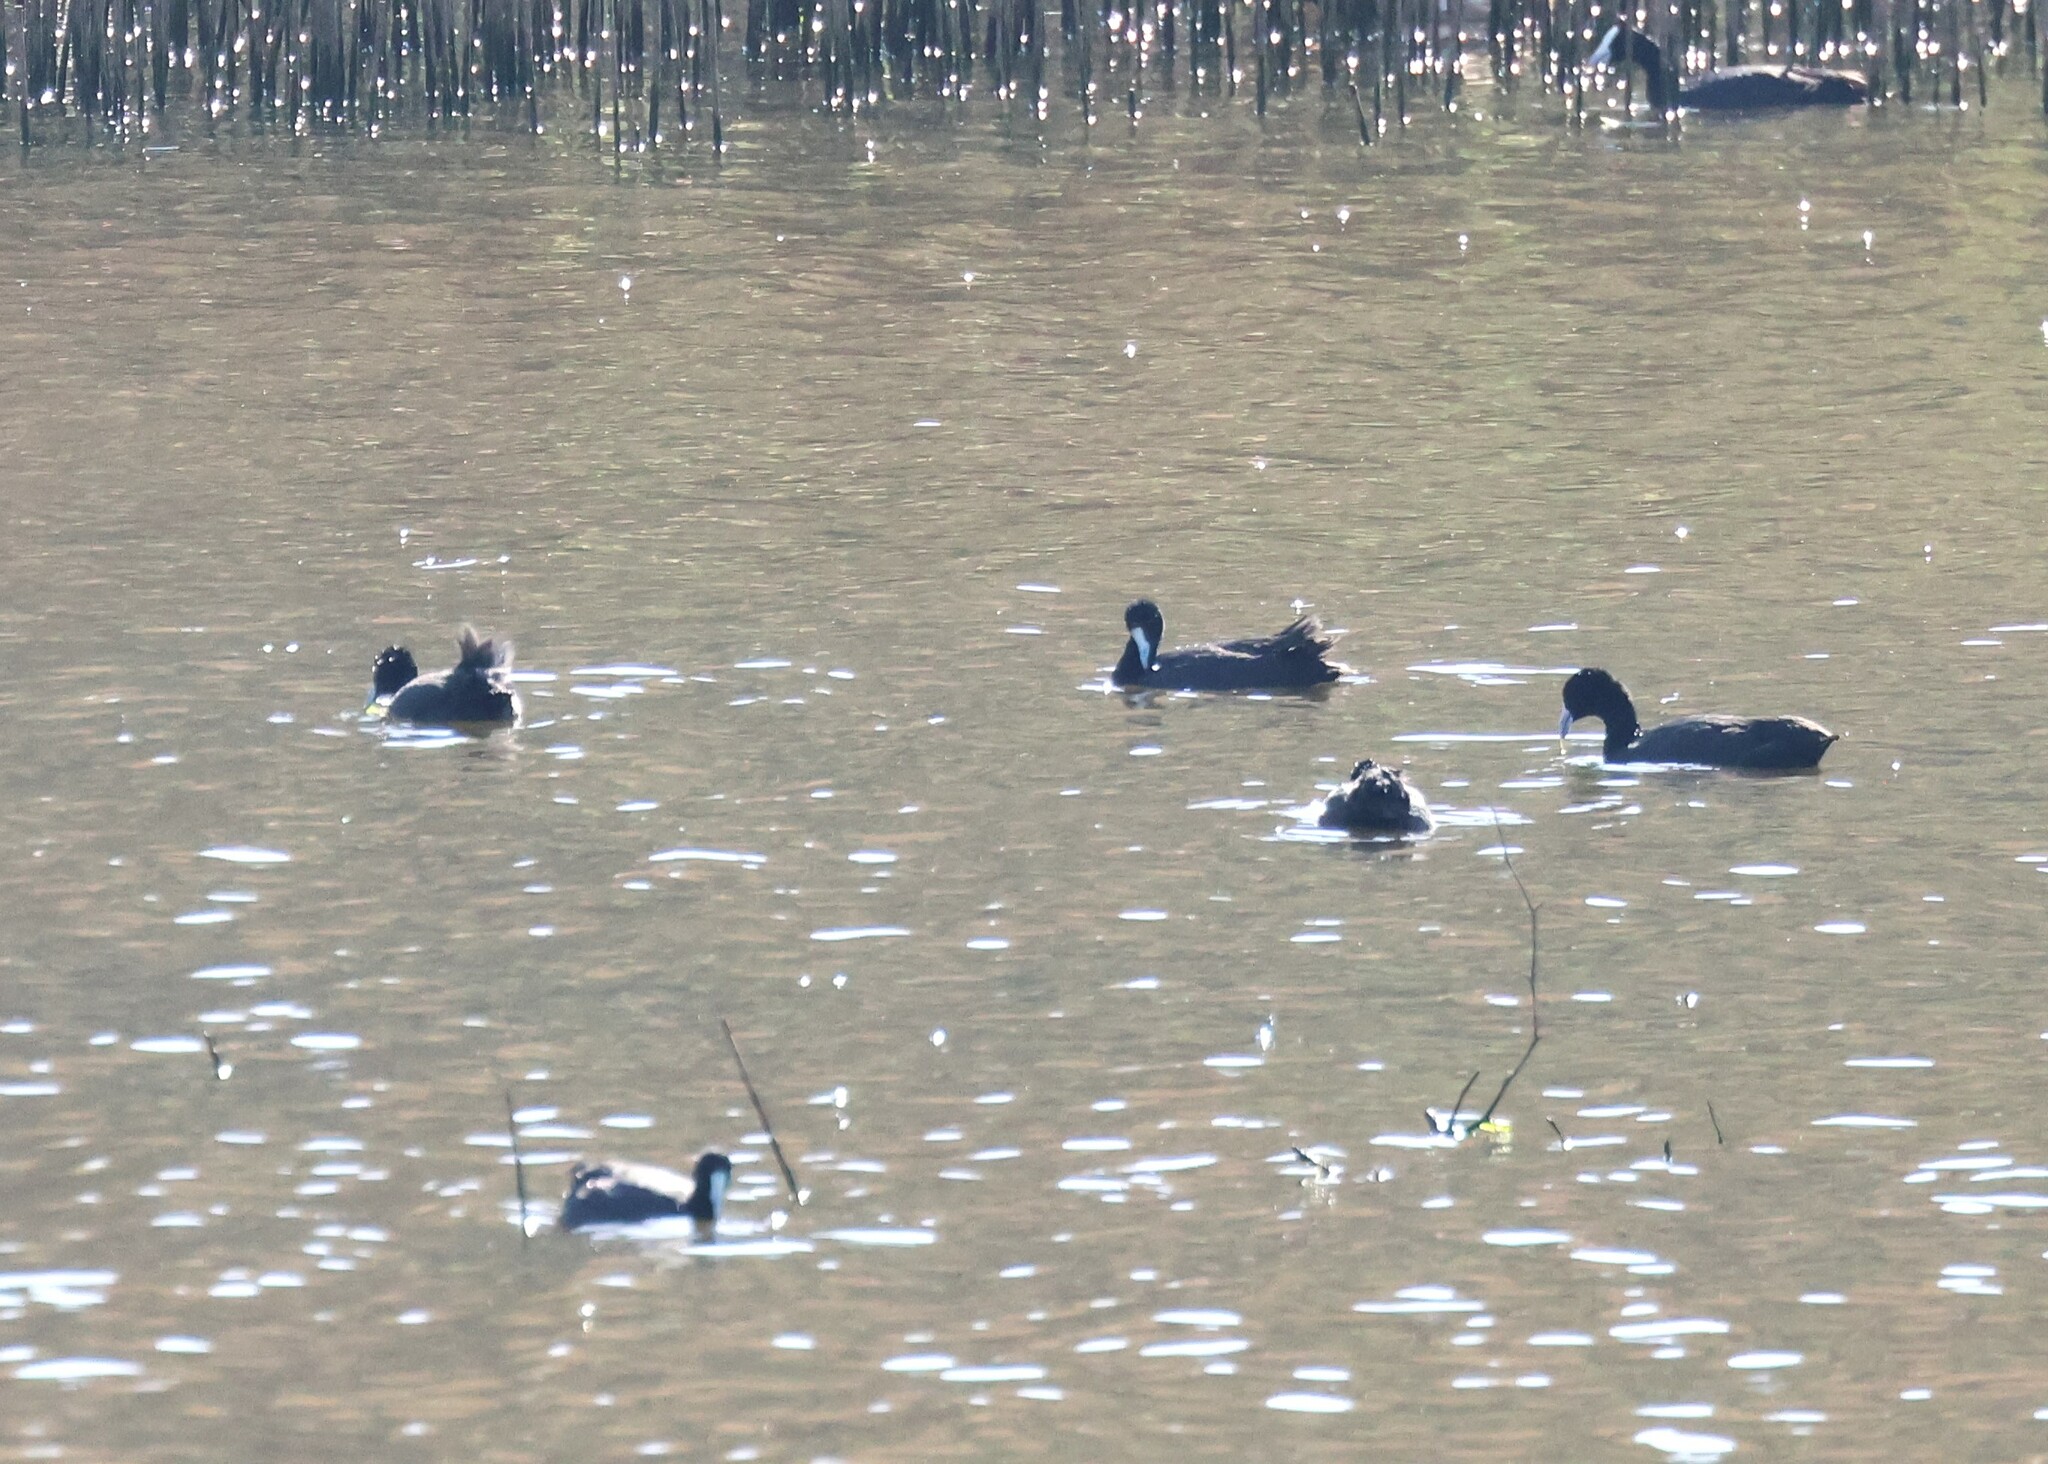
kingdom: Animalia
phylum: Chordata
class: Aves
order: Gruiformes
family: Rallidae
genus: Fulica
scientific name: Fulica cristata
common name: Red-knobbed coot
